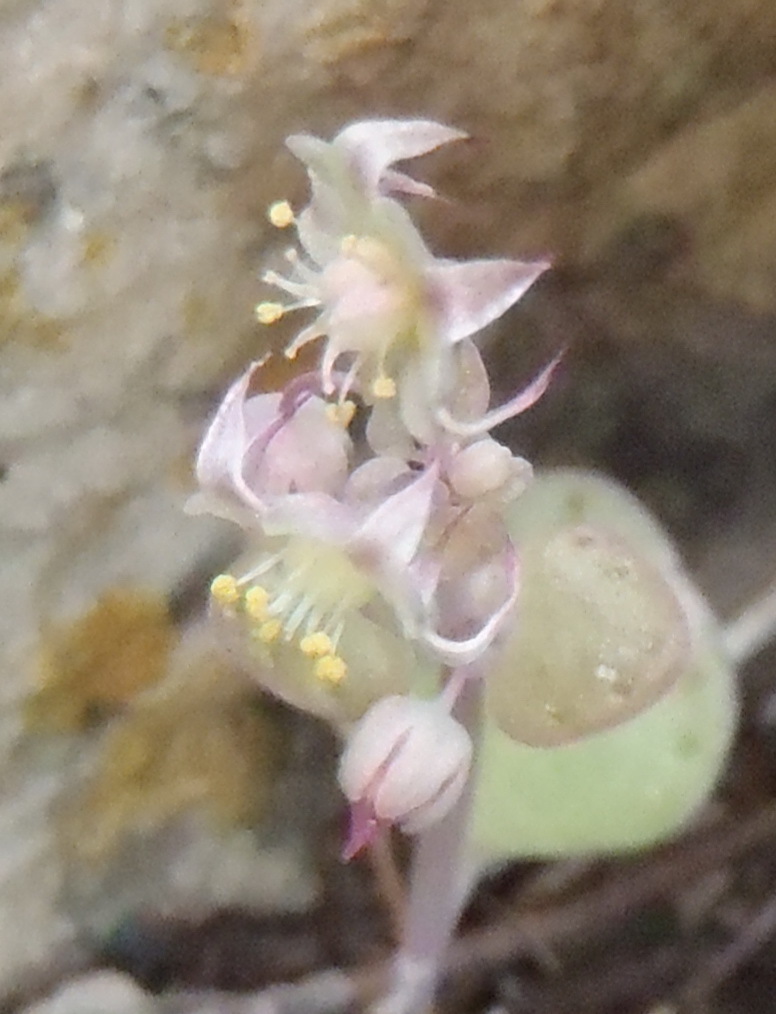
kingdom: Plantae
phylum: Tracheophyta
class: Magnoliopsida
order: Saxifragales
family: Crassulaceae
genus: Crassula
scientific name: Crassula nemorosa
